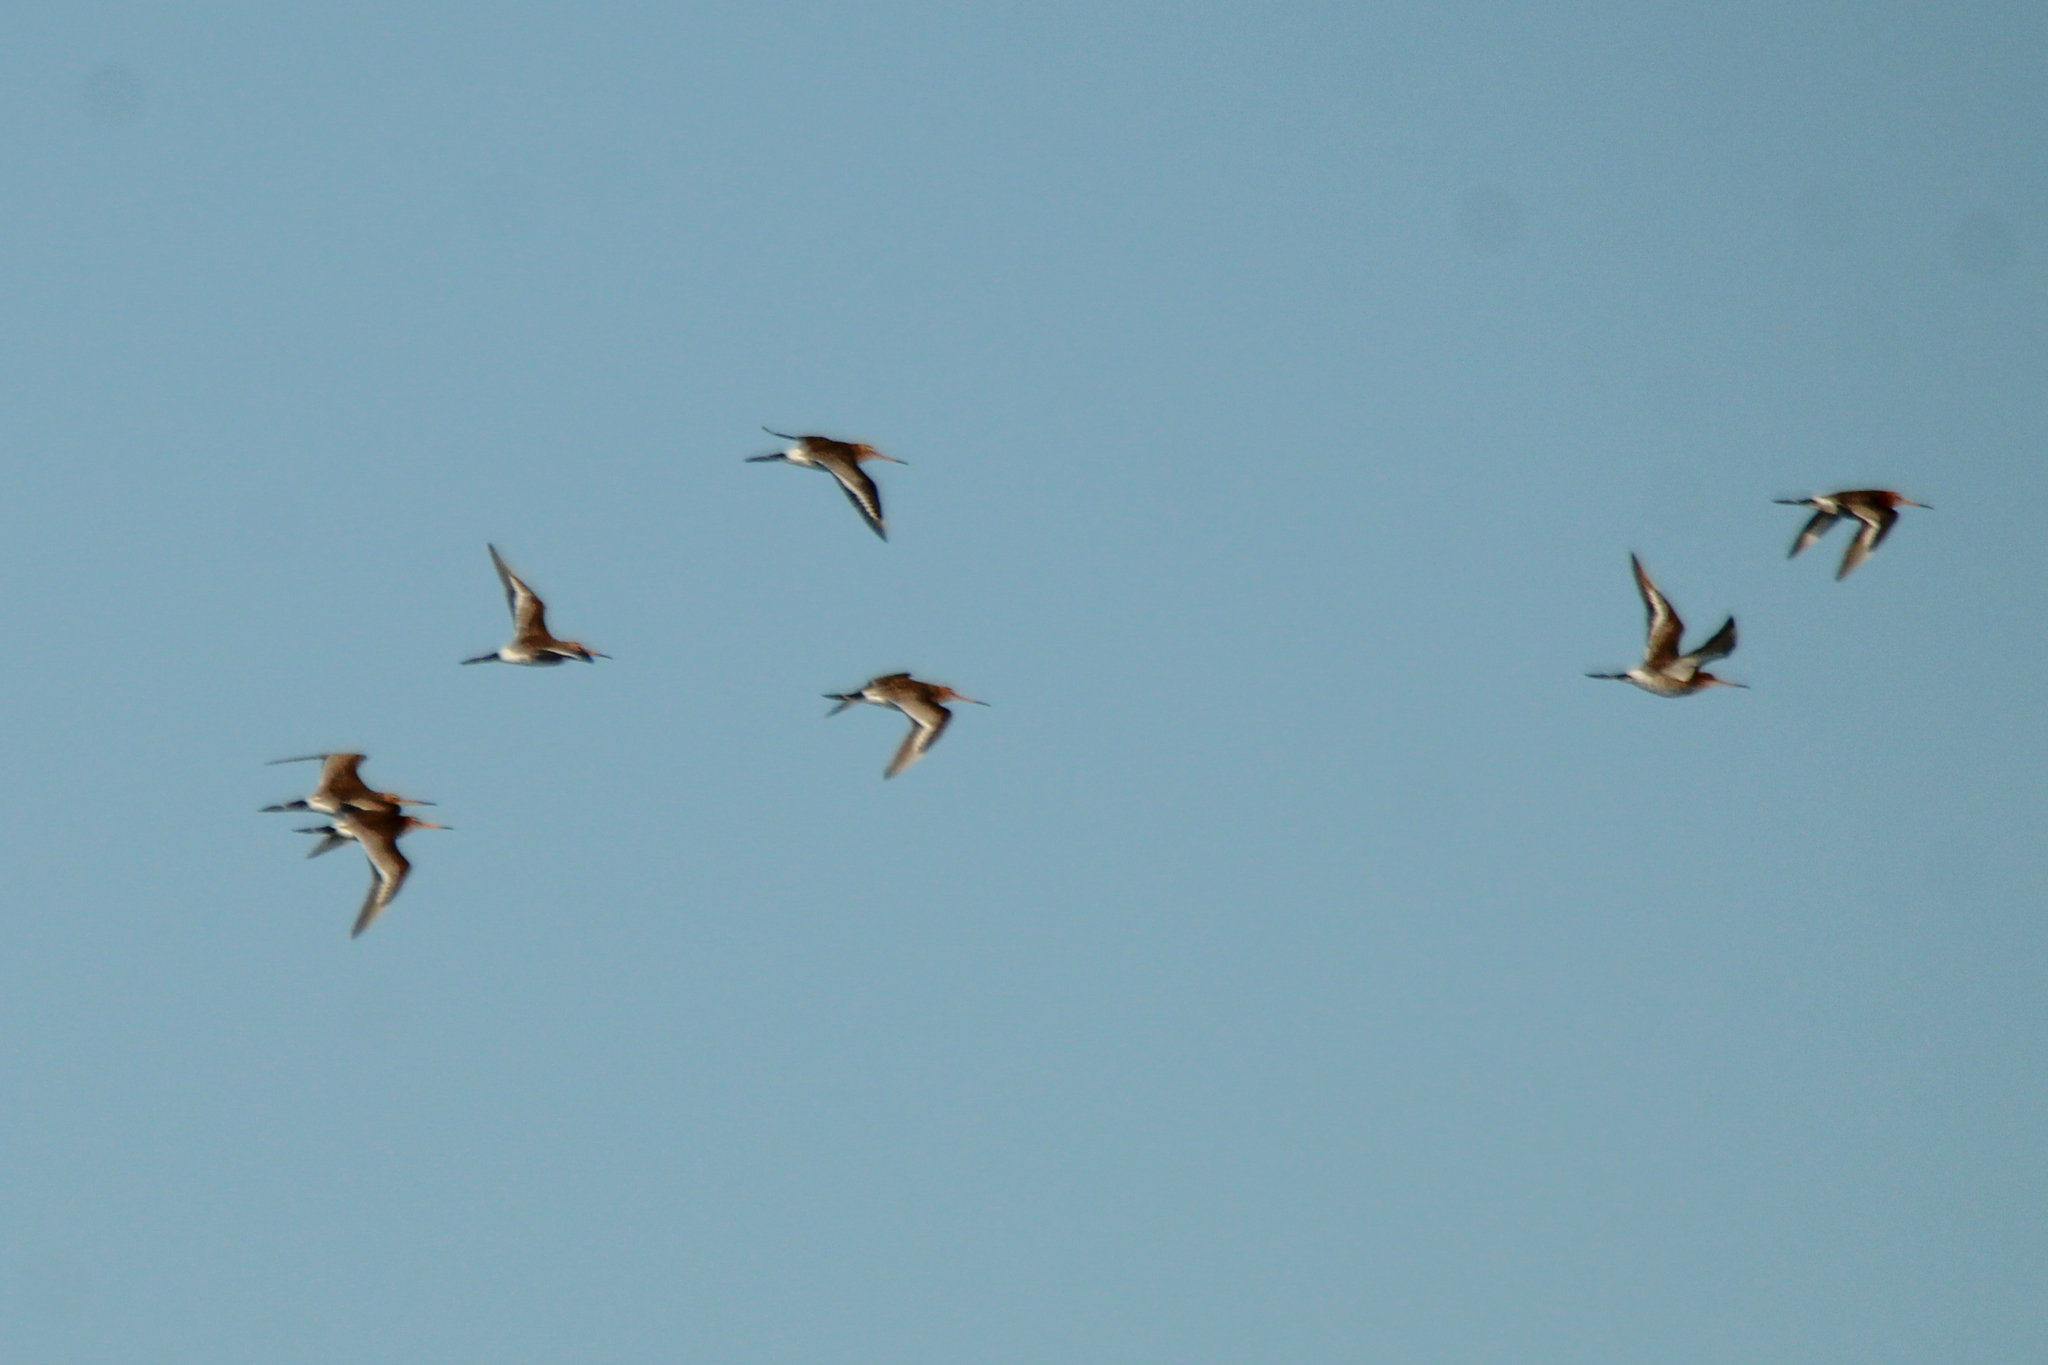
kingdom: Animalia
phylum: Chordata
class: Aves
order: Charadriiformes
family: Scolopacidae
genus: Limosa
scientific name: Limosa limosa
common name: Black-tailed godwit
